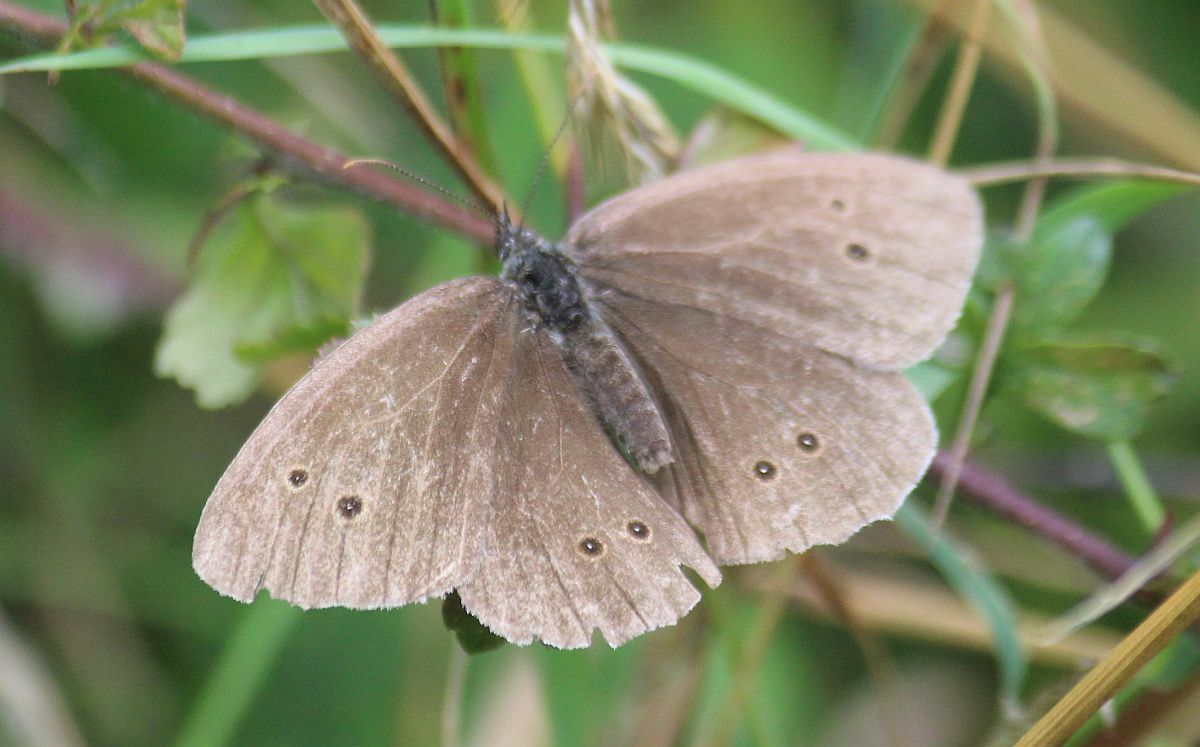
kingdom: Animalia
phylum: Arthropoda
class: Insecta
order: Lepidoptera
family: Nymphalidae
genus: Aphantopus
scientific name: Aphantopus hyperantus
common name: Ringlet
